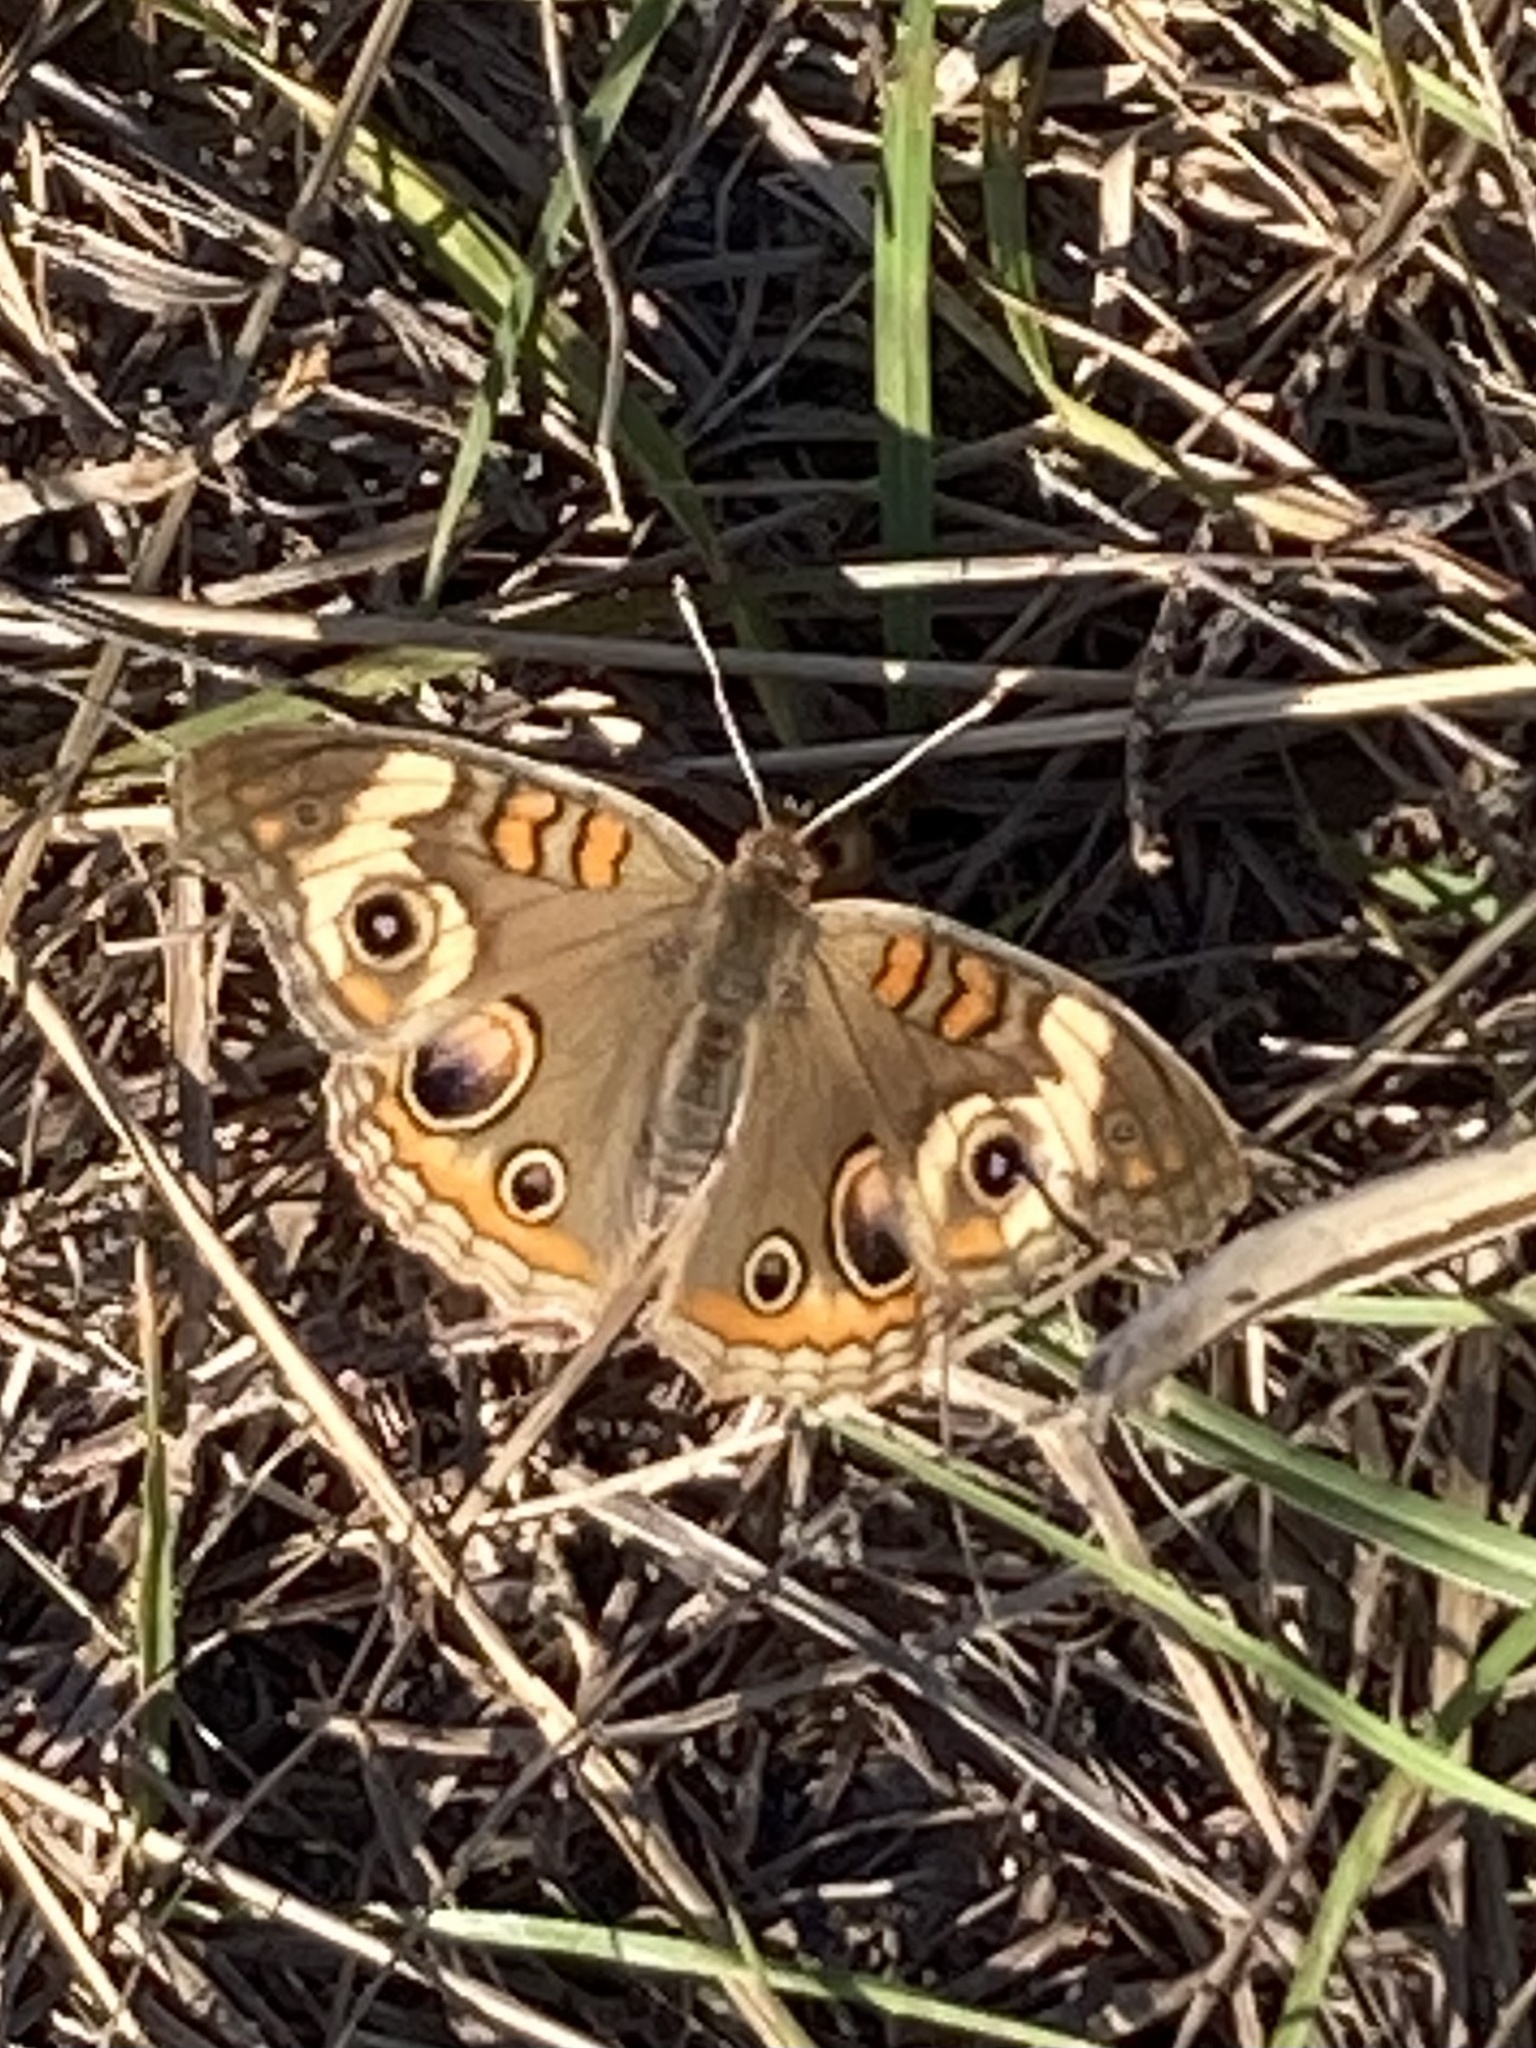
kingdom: Animalia
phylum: Arthropoda
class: Insecta
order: Lepidoptera
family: Nymphalidae
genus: Junonia
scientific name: Junonia coenia
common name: Common buckeye
